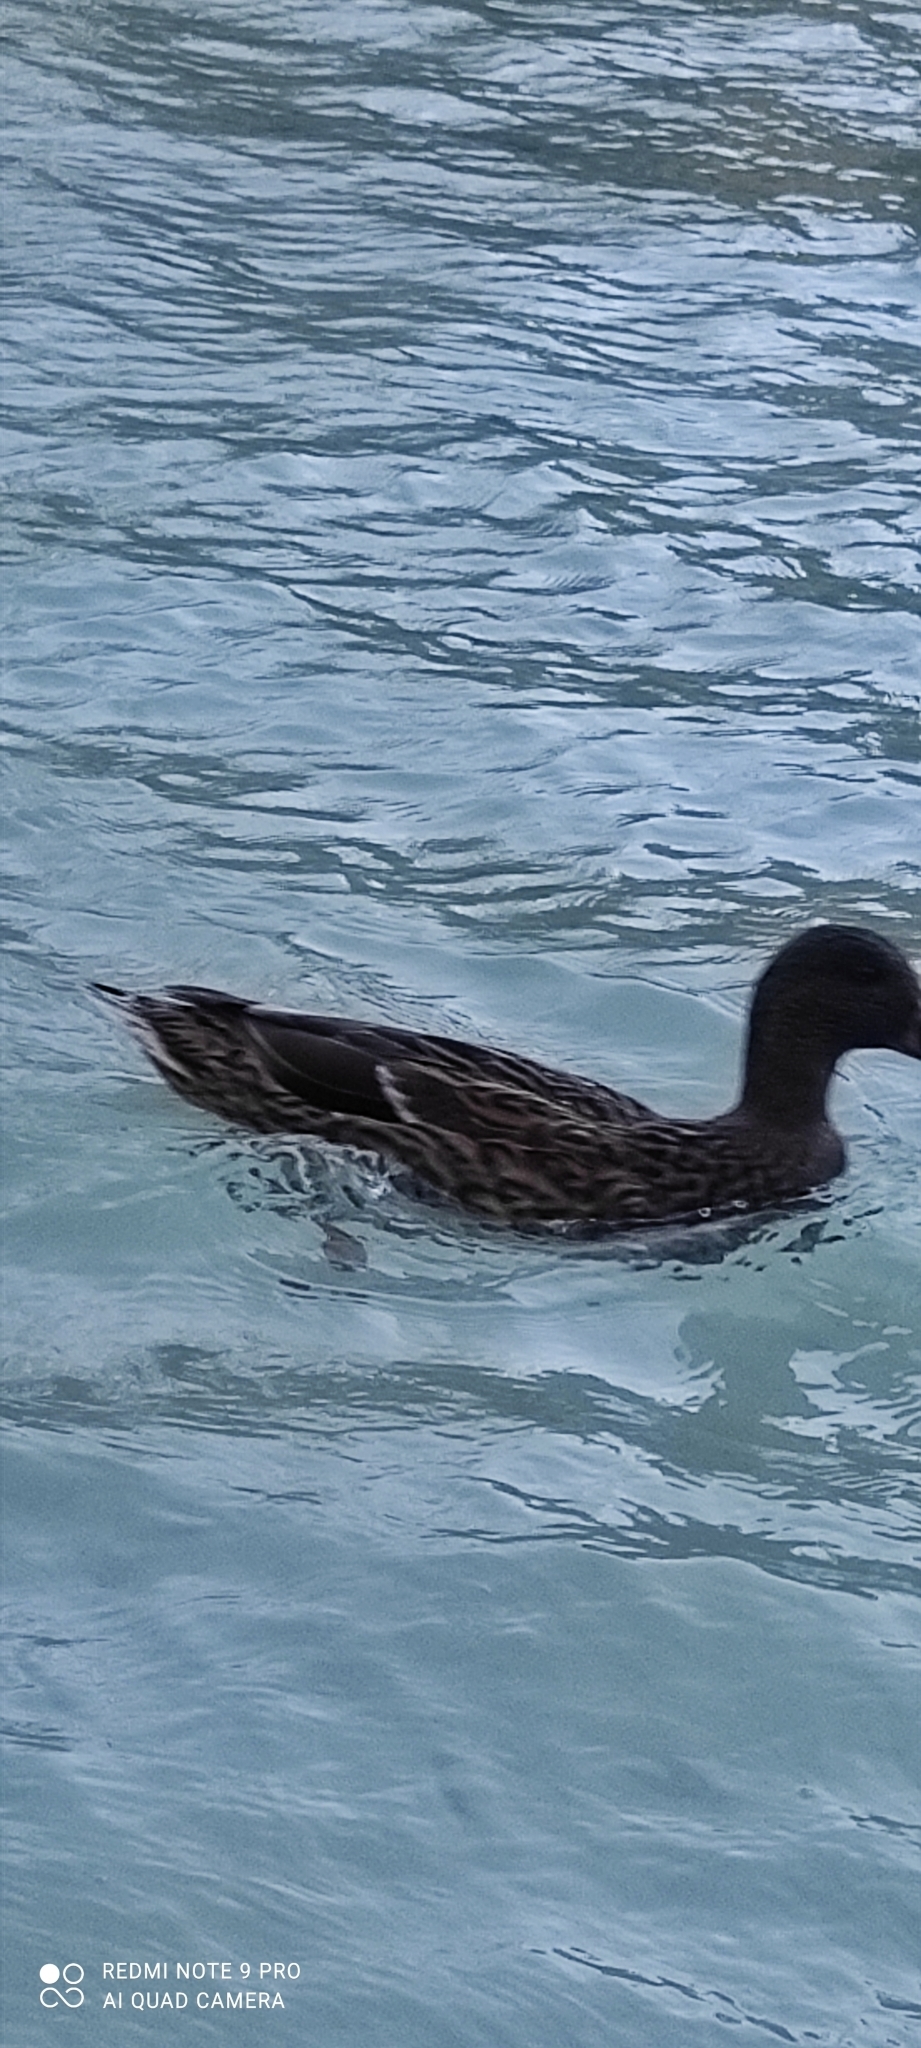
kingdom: Animalia
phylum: Chordata
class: Aves
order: Anseriformes
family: Anatidae
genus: Anas
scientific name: Anas platyrhynchos
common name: Mallard
